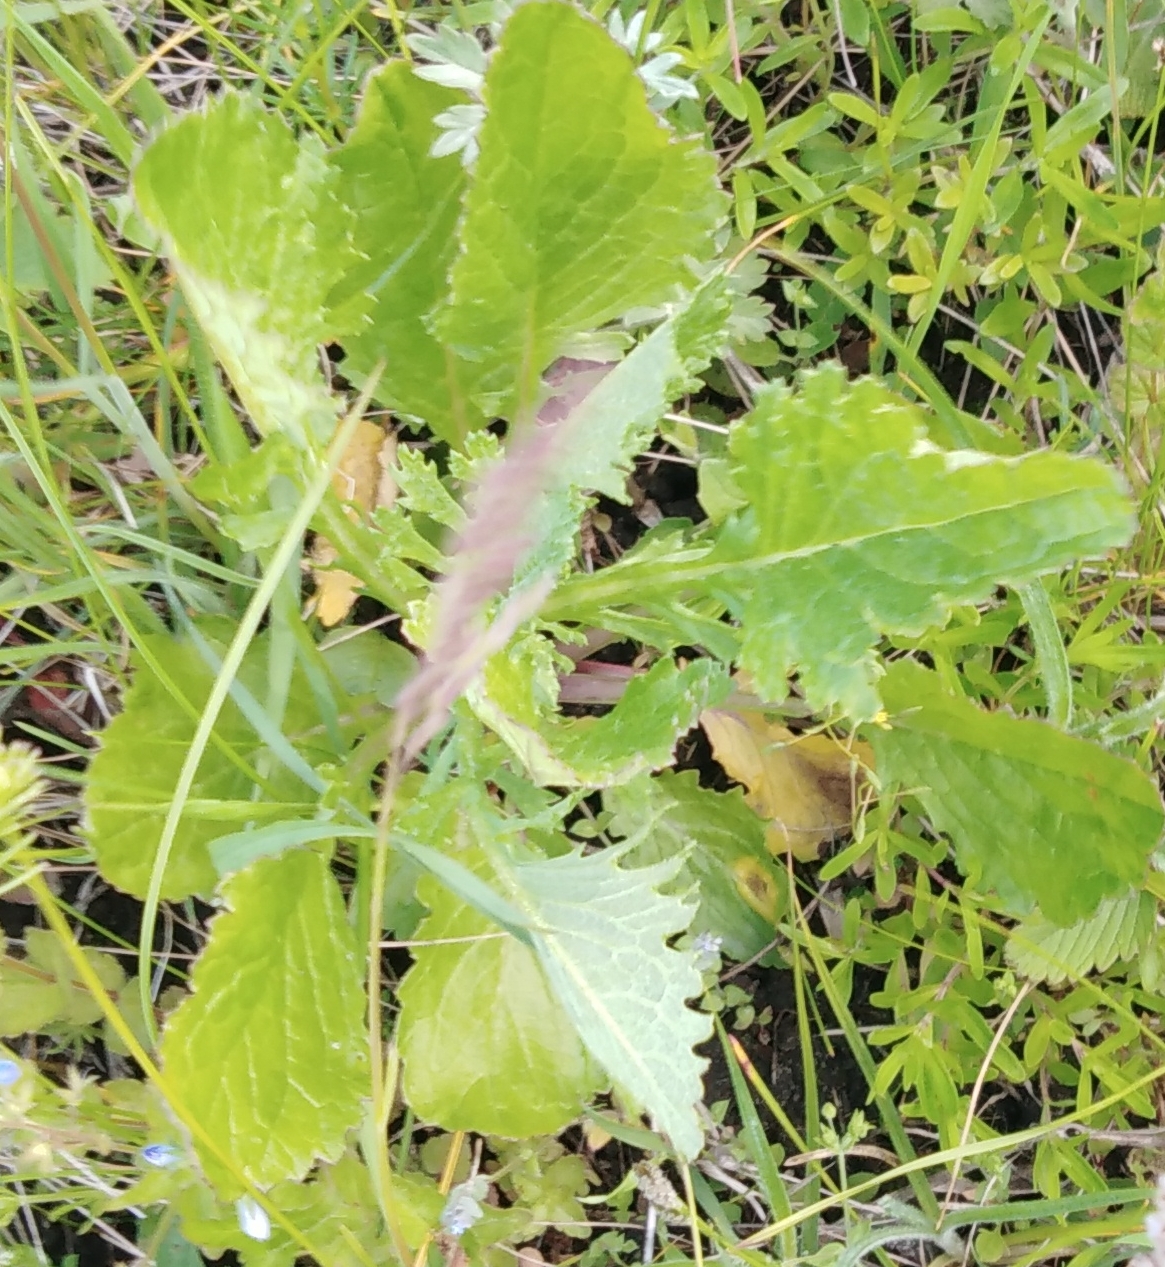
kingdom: Plantae
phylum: Tracheophyta
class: Magnoliopsida
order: Asterales
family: Asteraceae
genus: Jacobaea
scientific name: Jacobaea vulgaris
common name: Stinking willie
